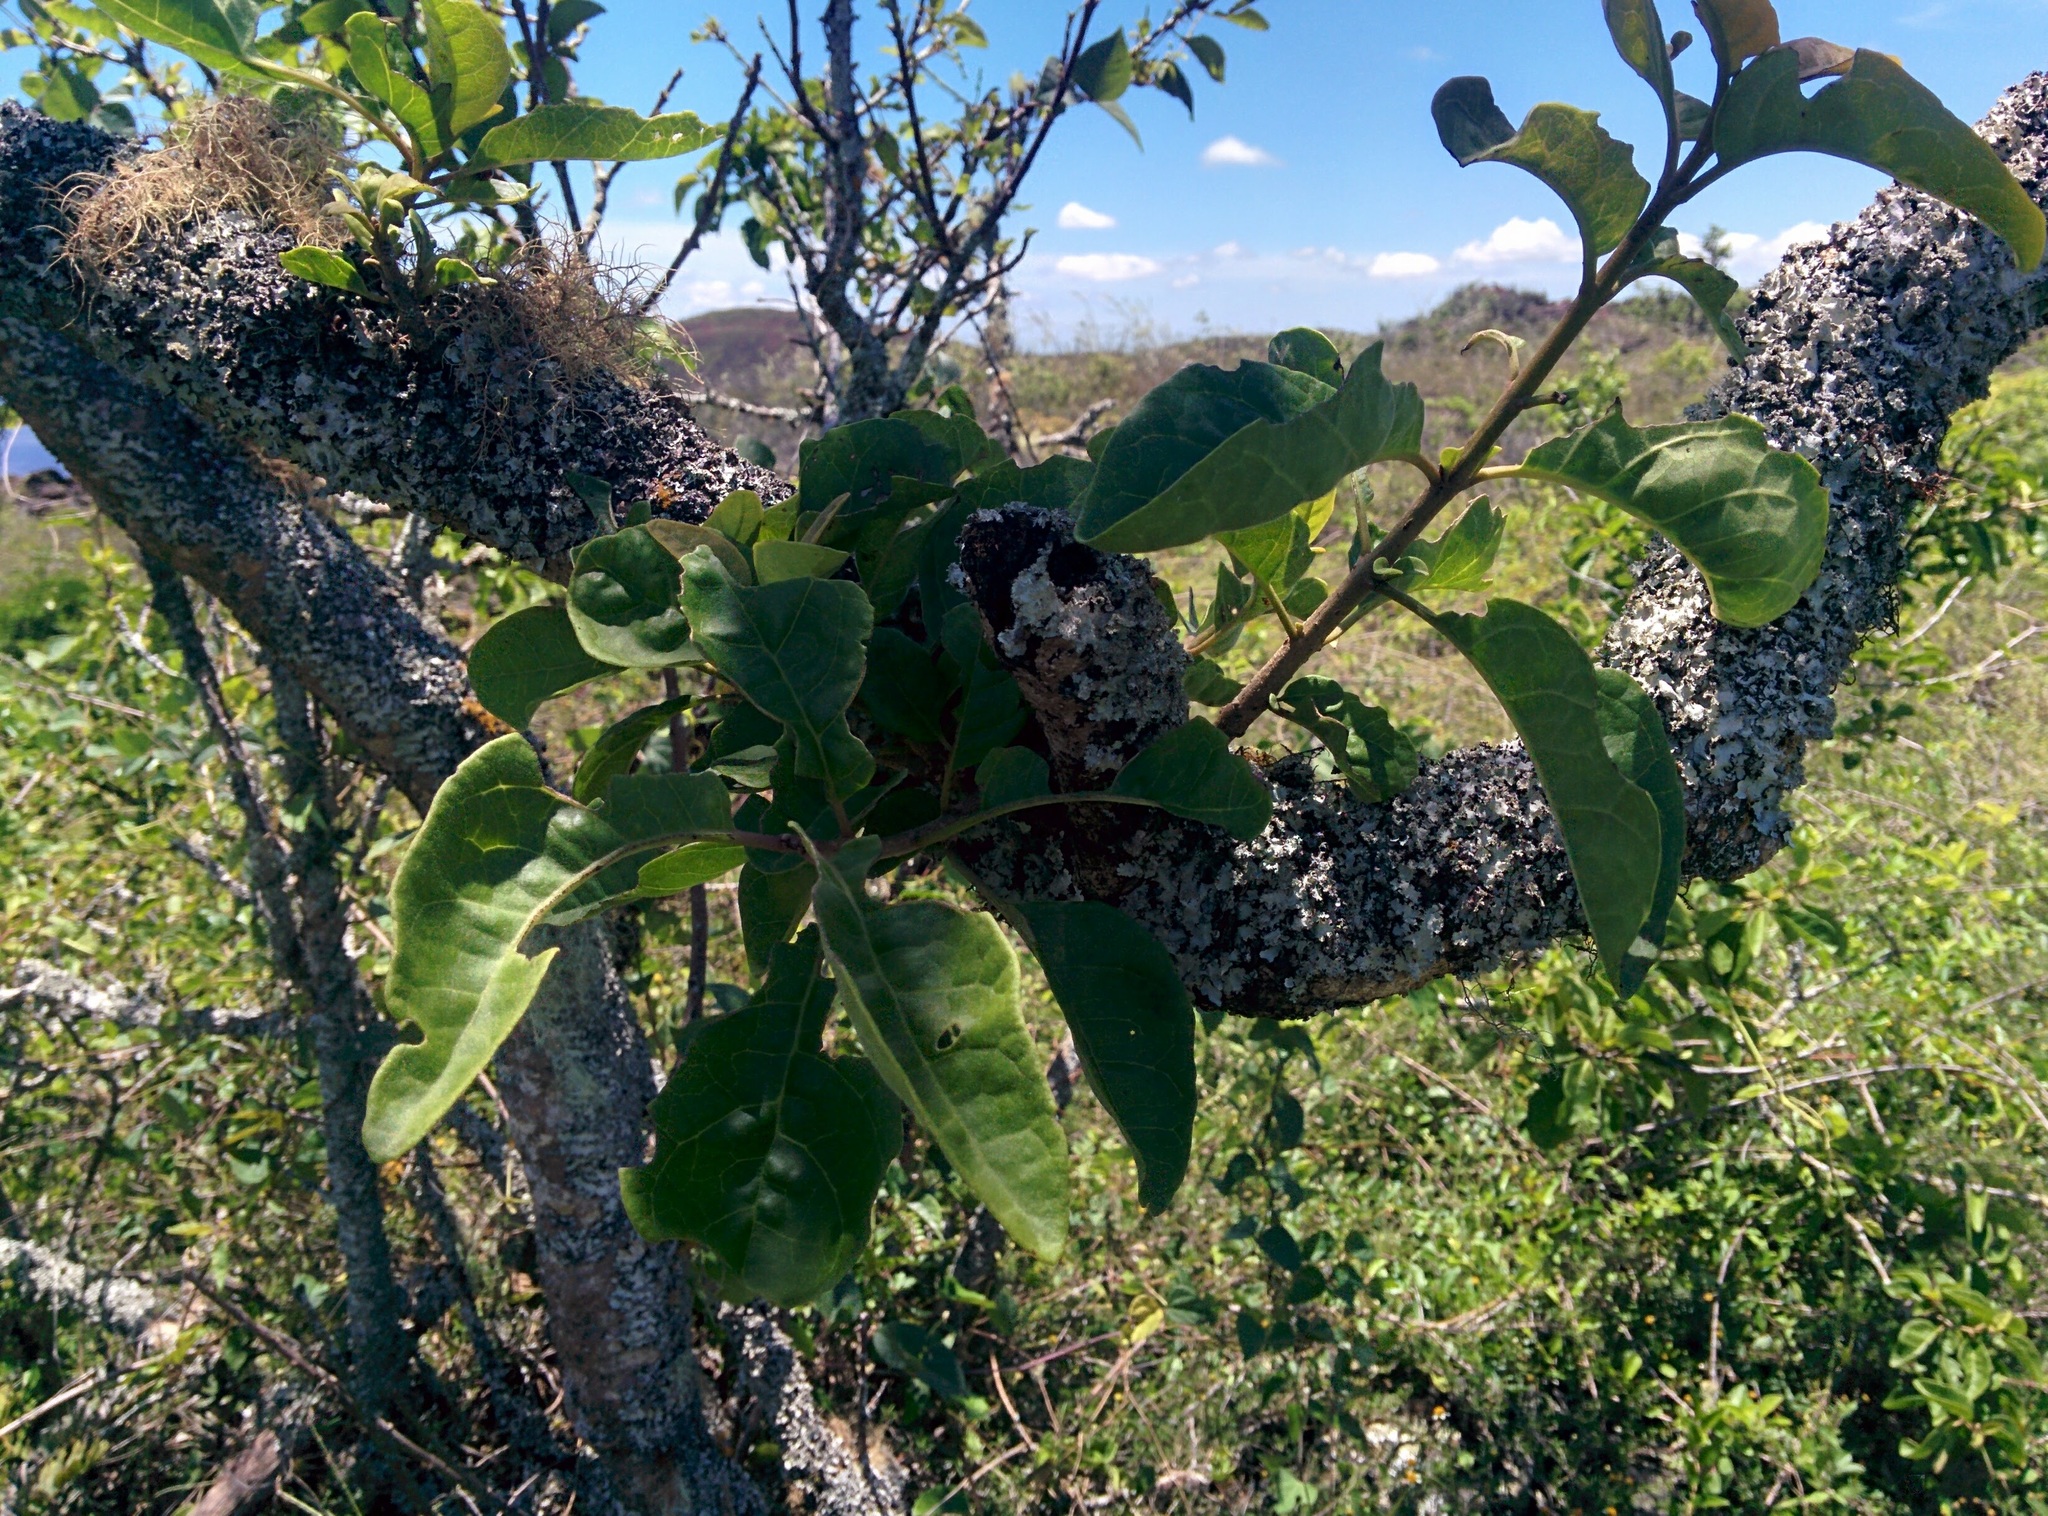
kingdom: Plantae
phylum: Tracheophyta
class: Magnoliopsida
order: Caryophyllales
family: Nyctaginaceae
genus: Guapira
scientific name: Guapira floribunda
